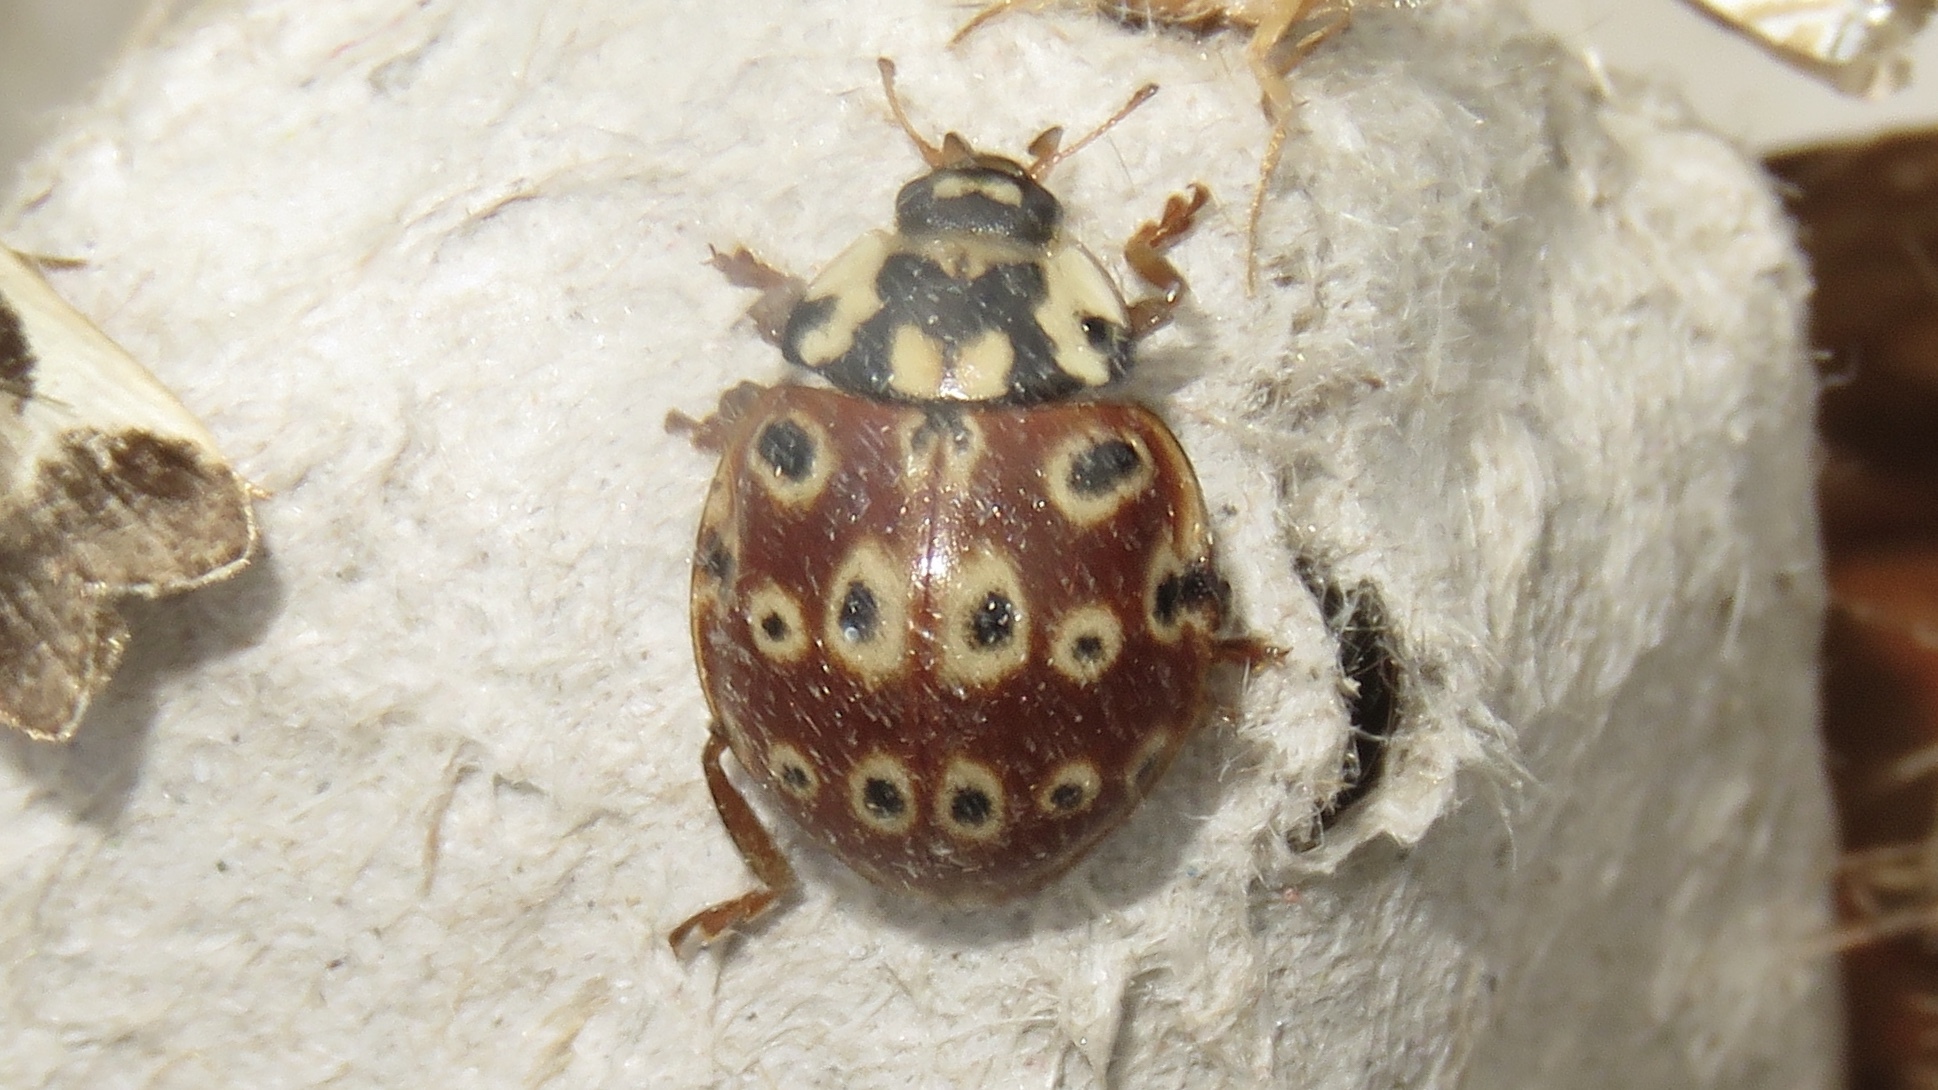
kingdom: Animalia
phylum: Arthropoda
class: Insecta
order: Coleoptera
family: Coccinellidae
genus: Anatis
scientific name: Anatis mali
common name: Eye-spotted lady beetle
